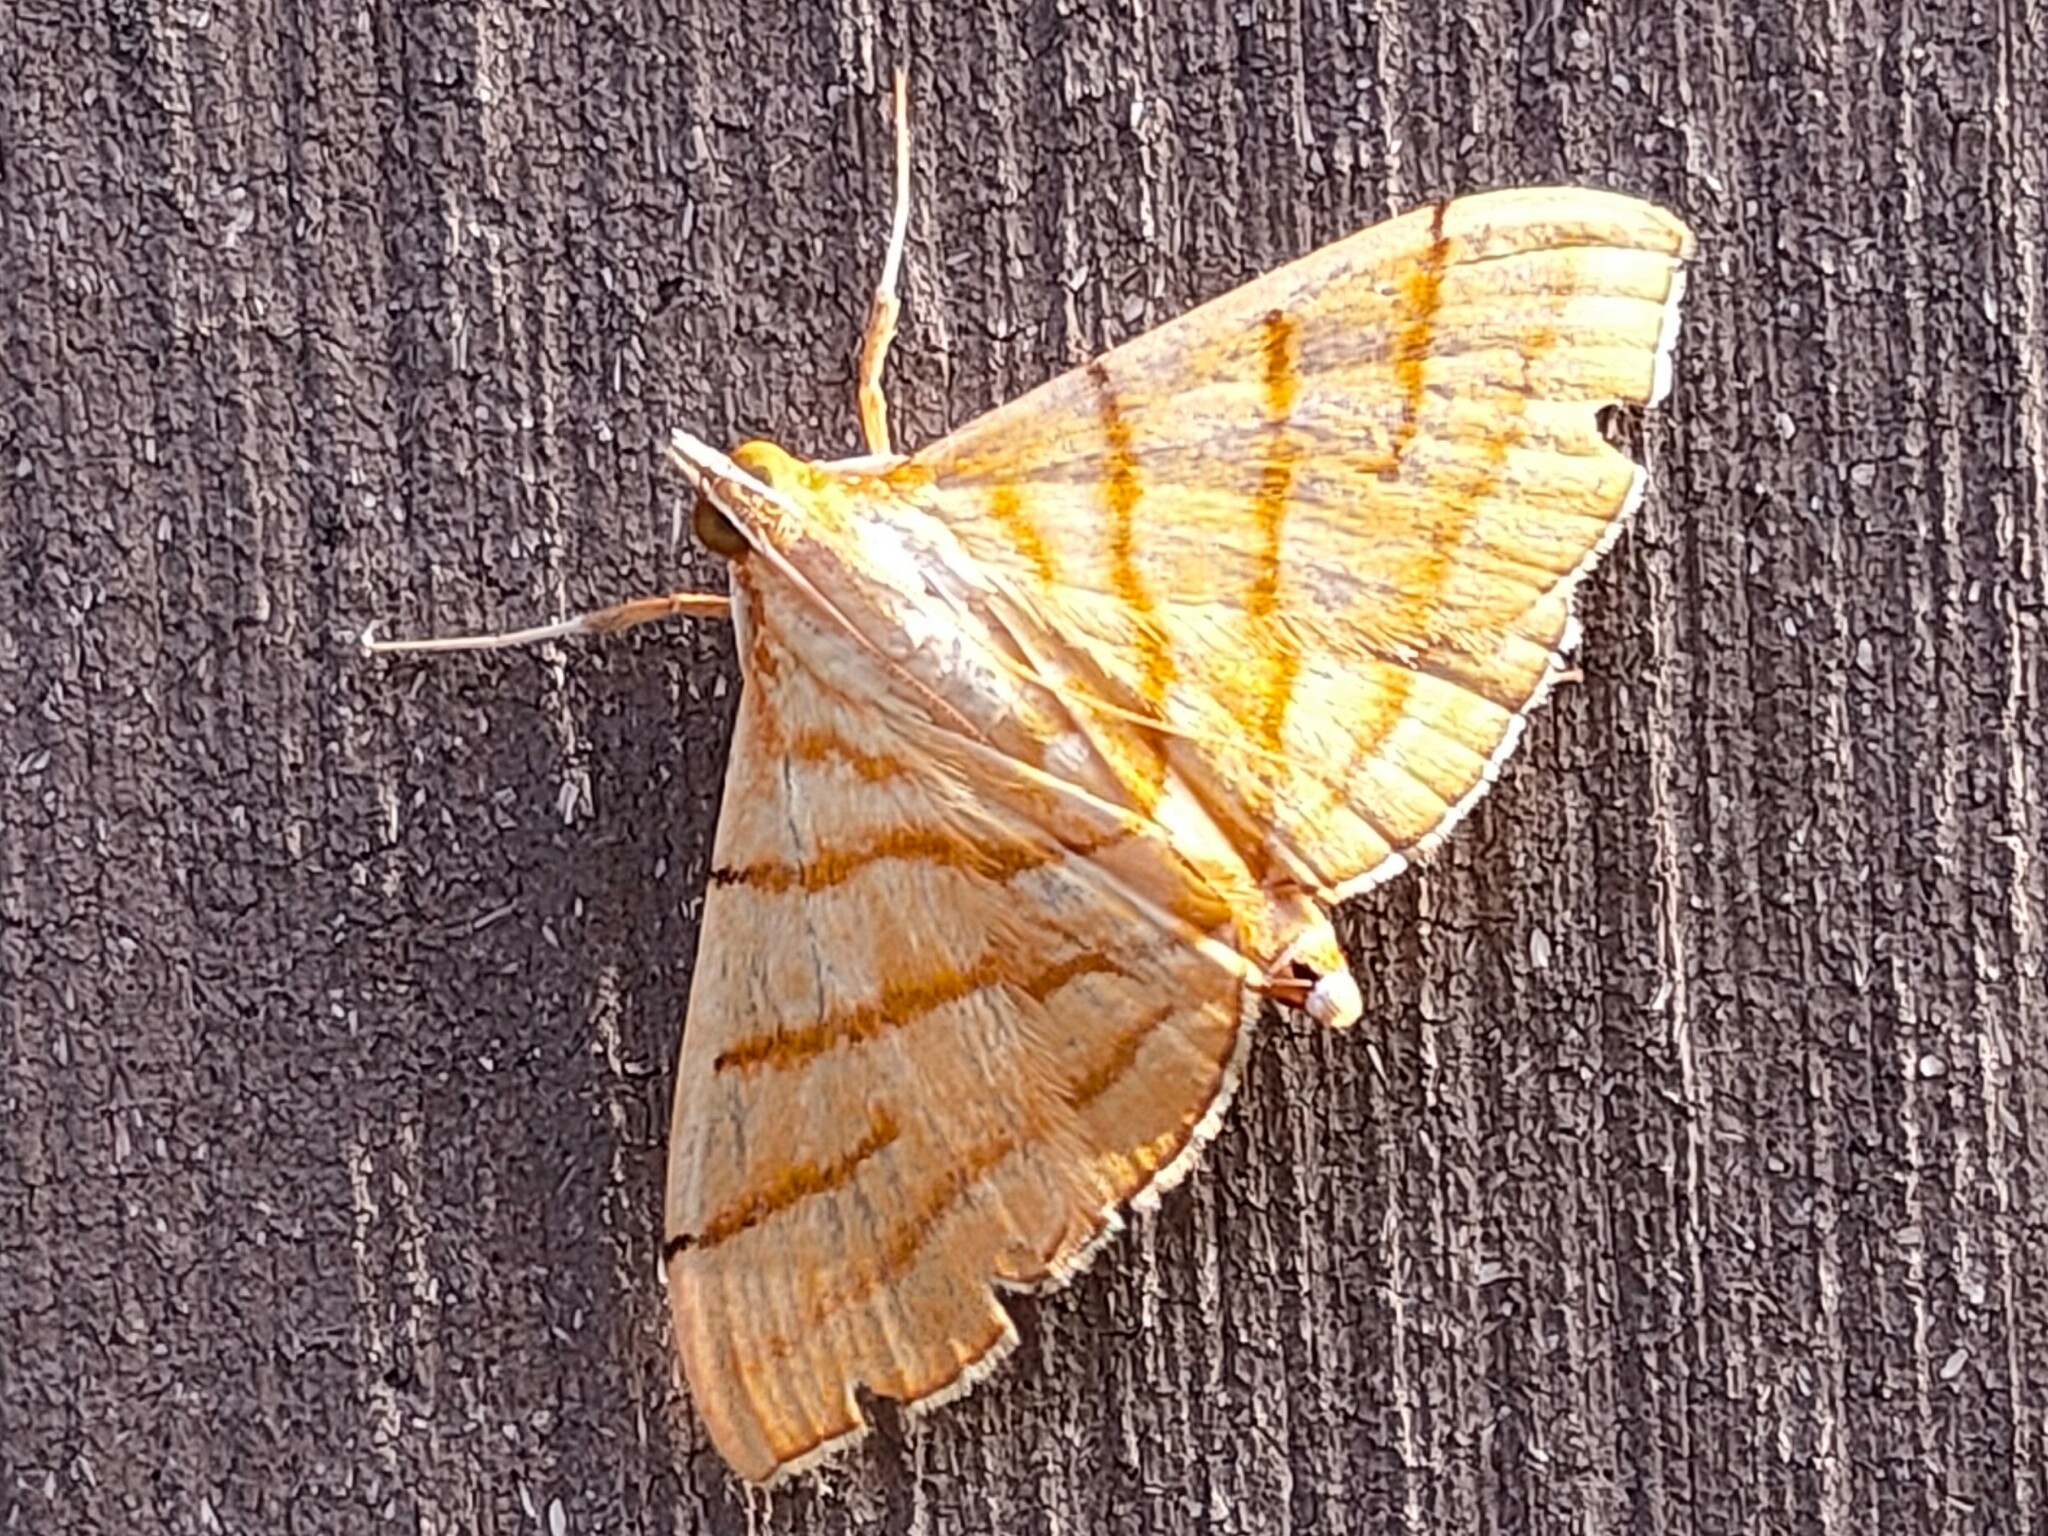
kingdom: Animalia
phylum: Arthropoda
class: Insecta
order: Lepidoptera
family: Crambidae
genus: Pagyda
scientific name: Pagyda quadrilineata
